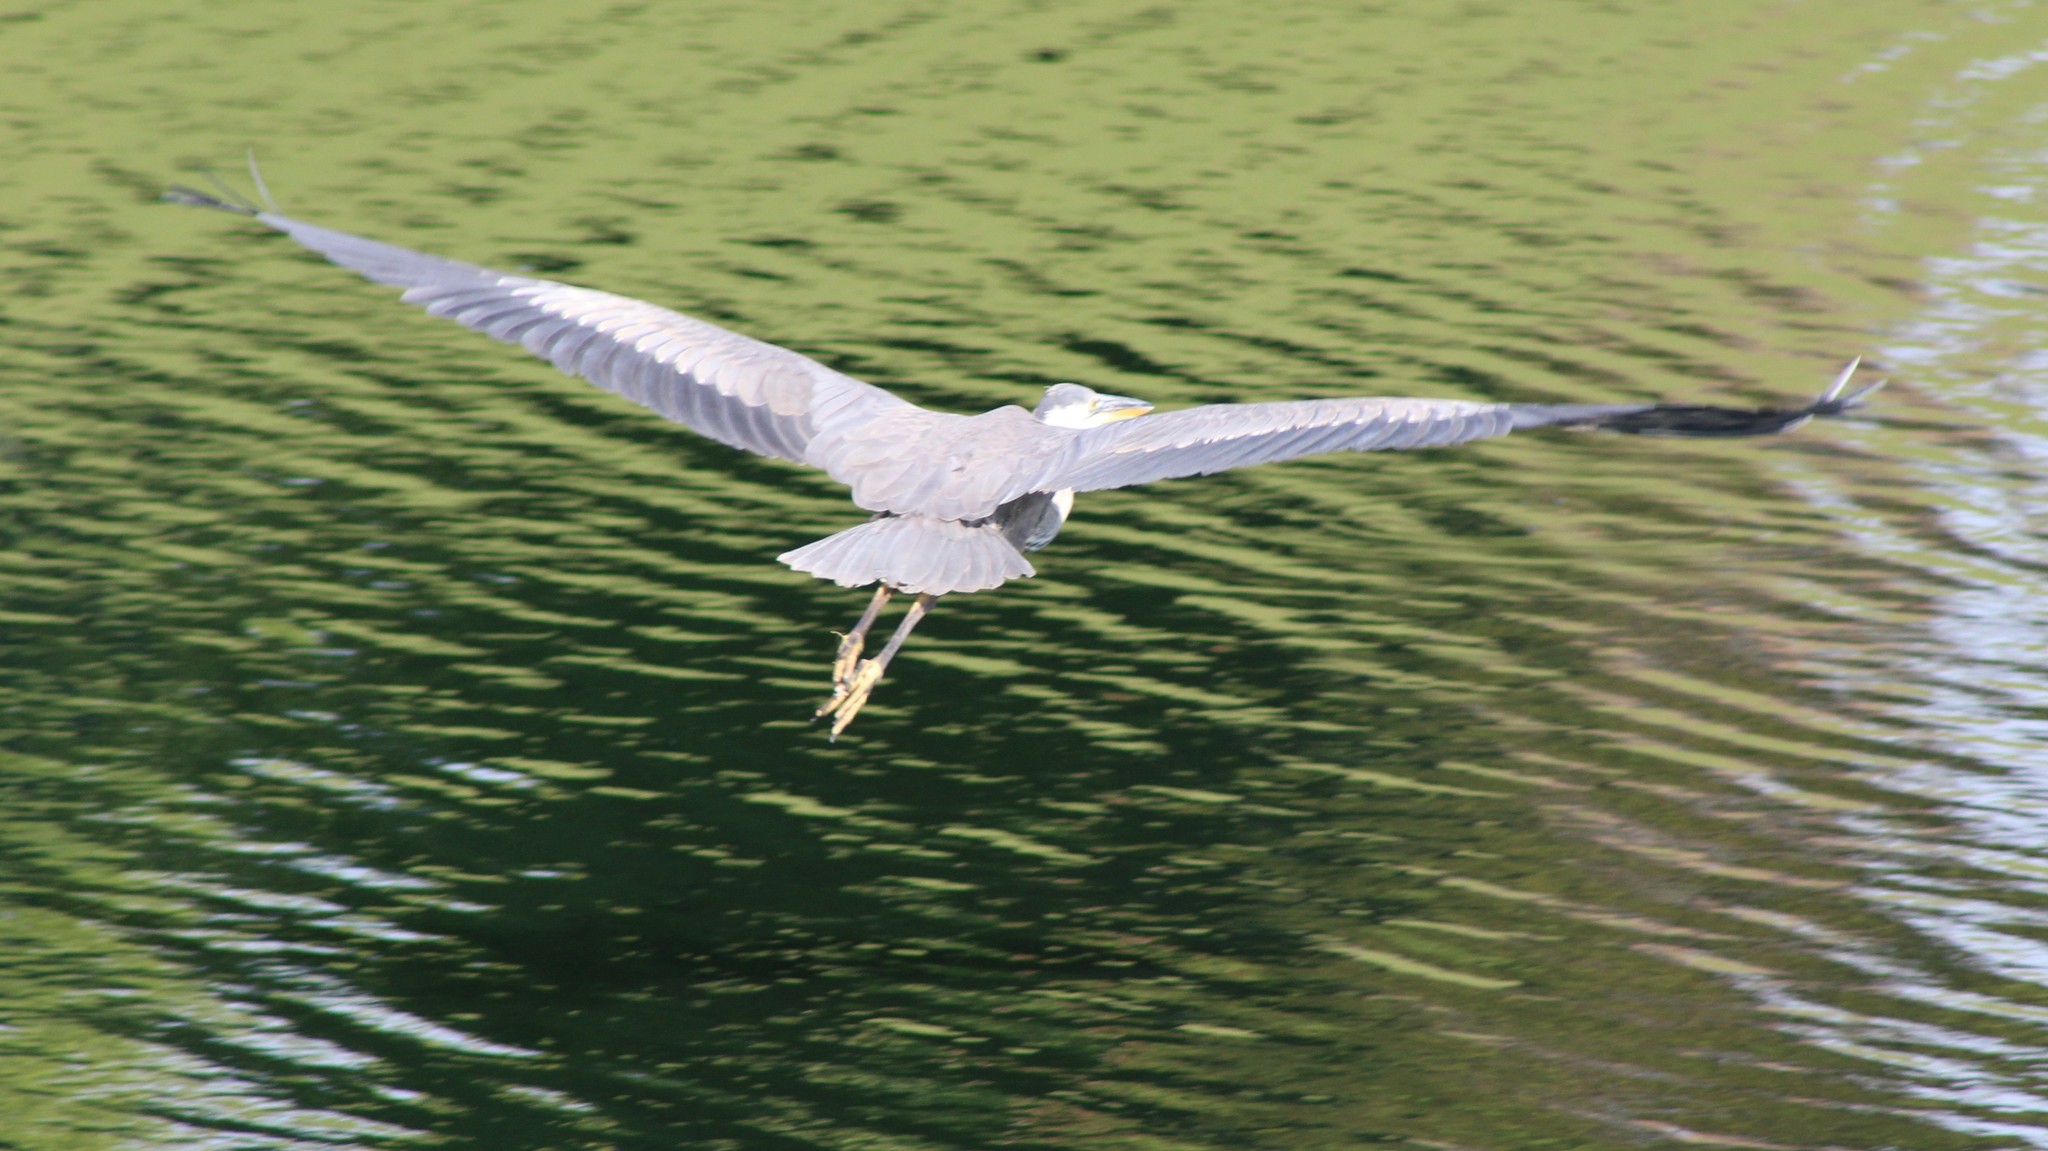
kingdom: Animalia
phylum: Chordata
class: Aves
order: Pelecaniformes
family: Ardeidae
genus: Ardea
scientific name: Ardea herodias
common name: Great blue heron
